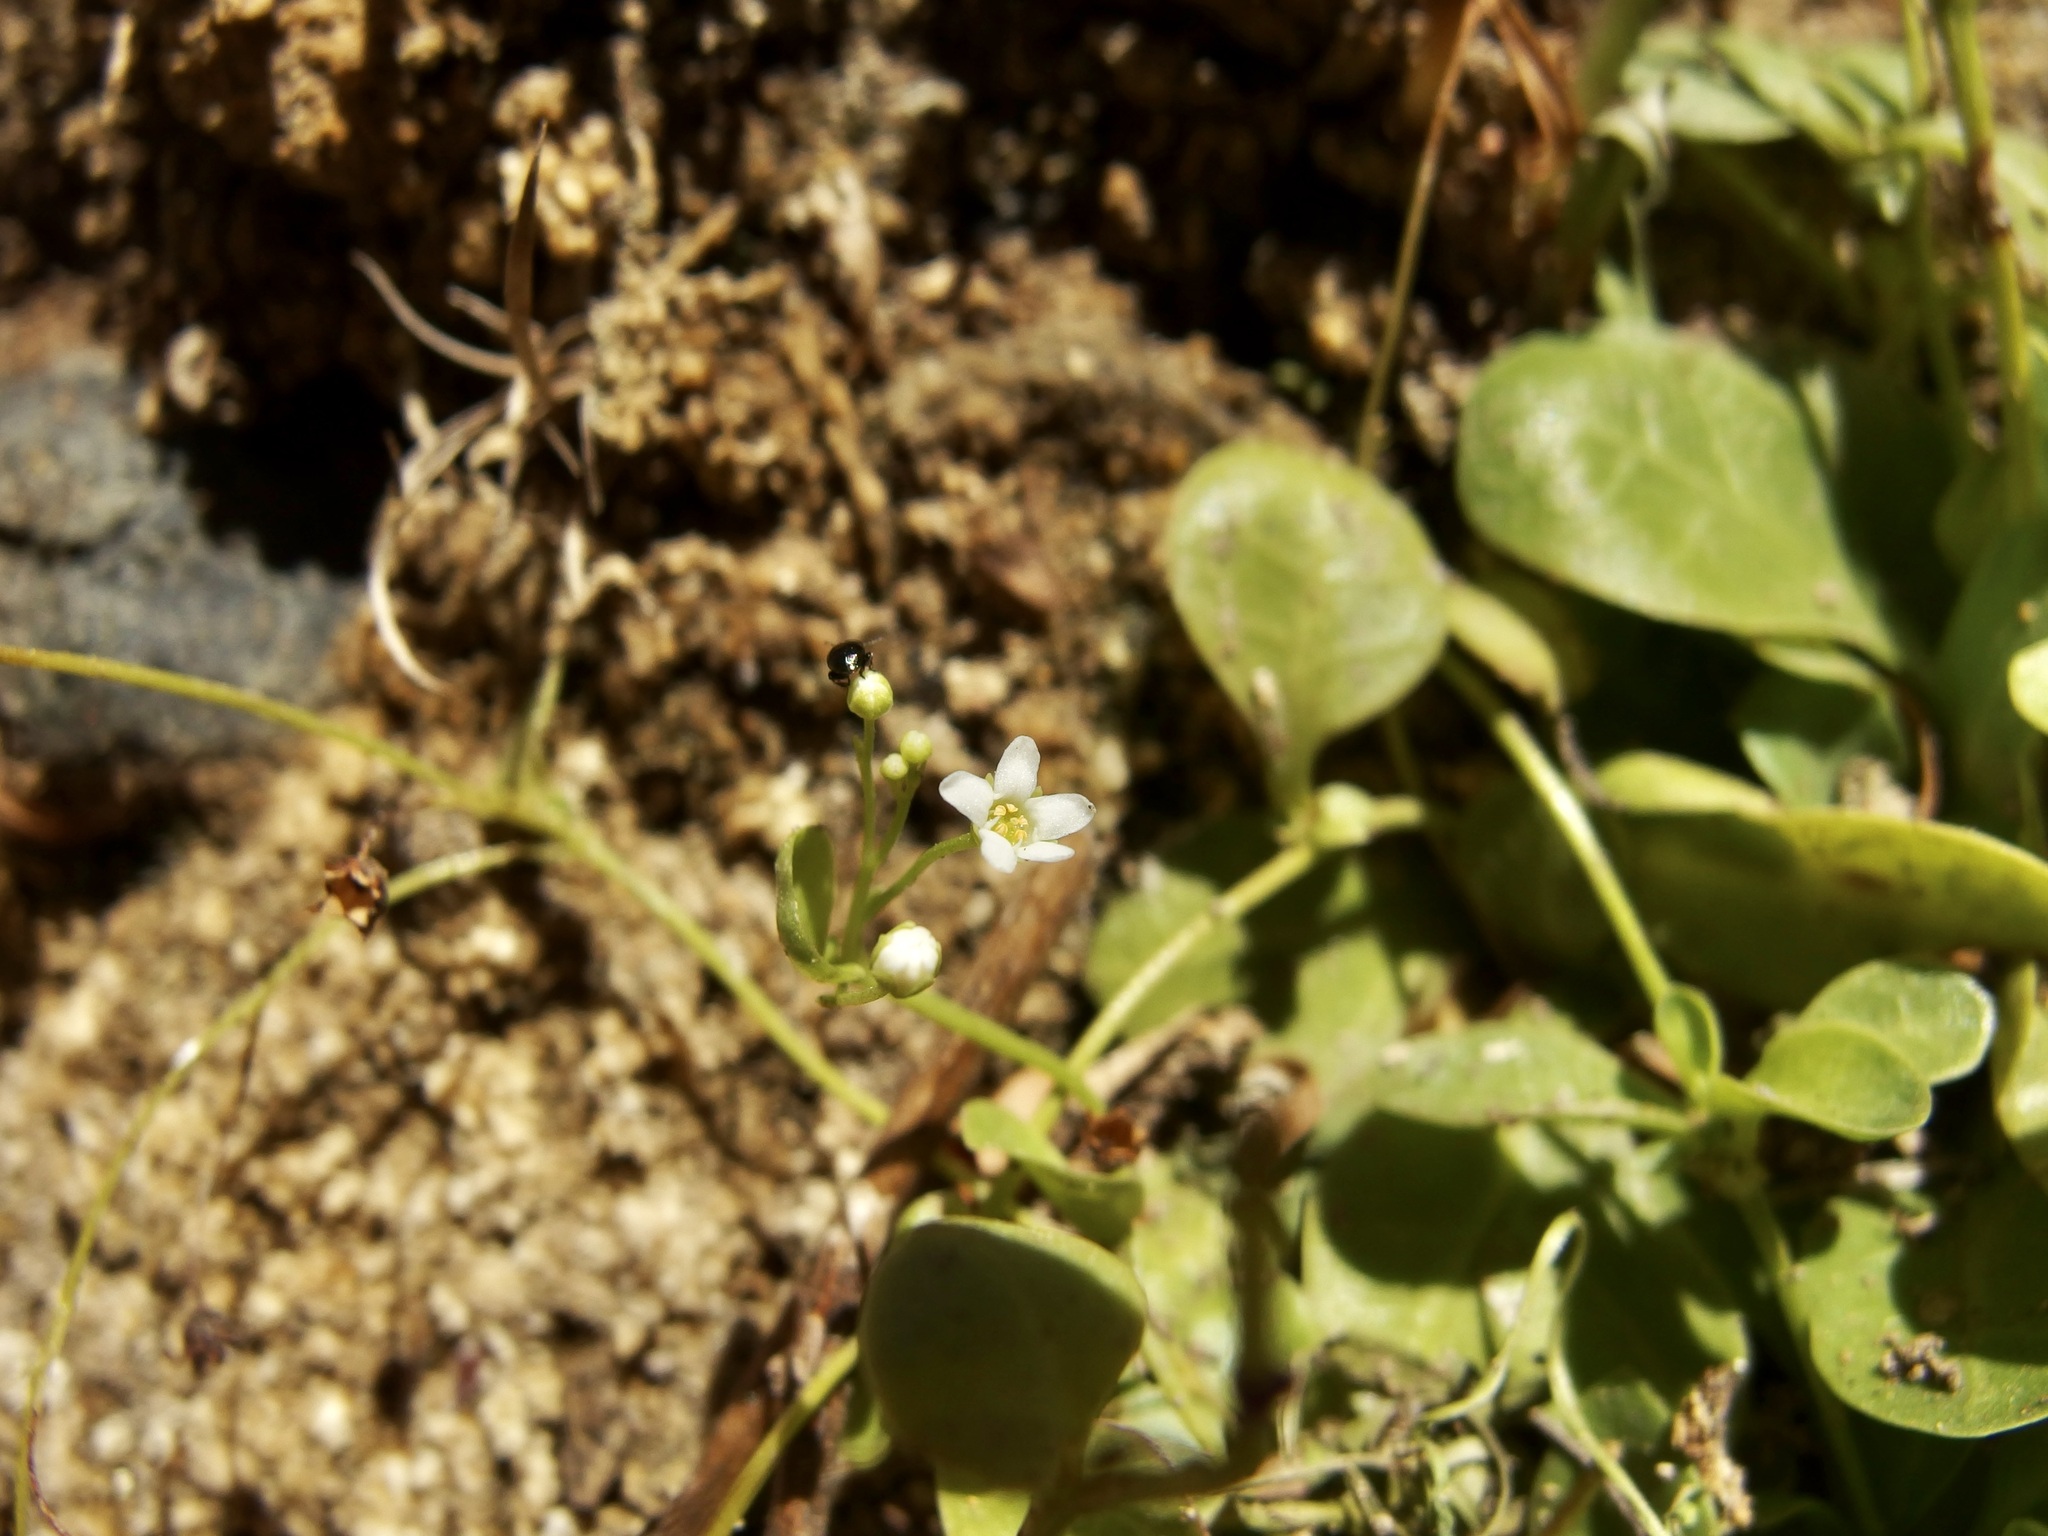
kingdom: Plantae
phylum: Tracheophyta
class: Magnoliopsida
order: Ericales
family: Primulaceae
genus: Samolus
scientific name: Samolus vagans
